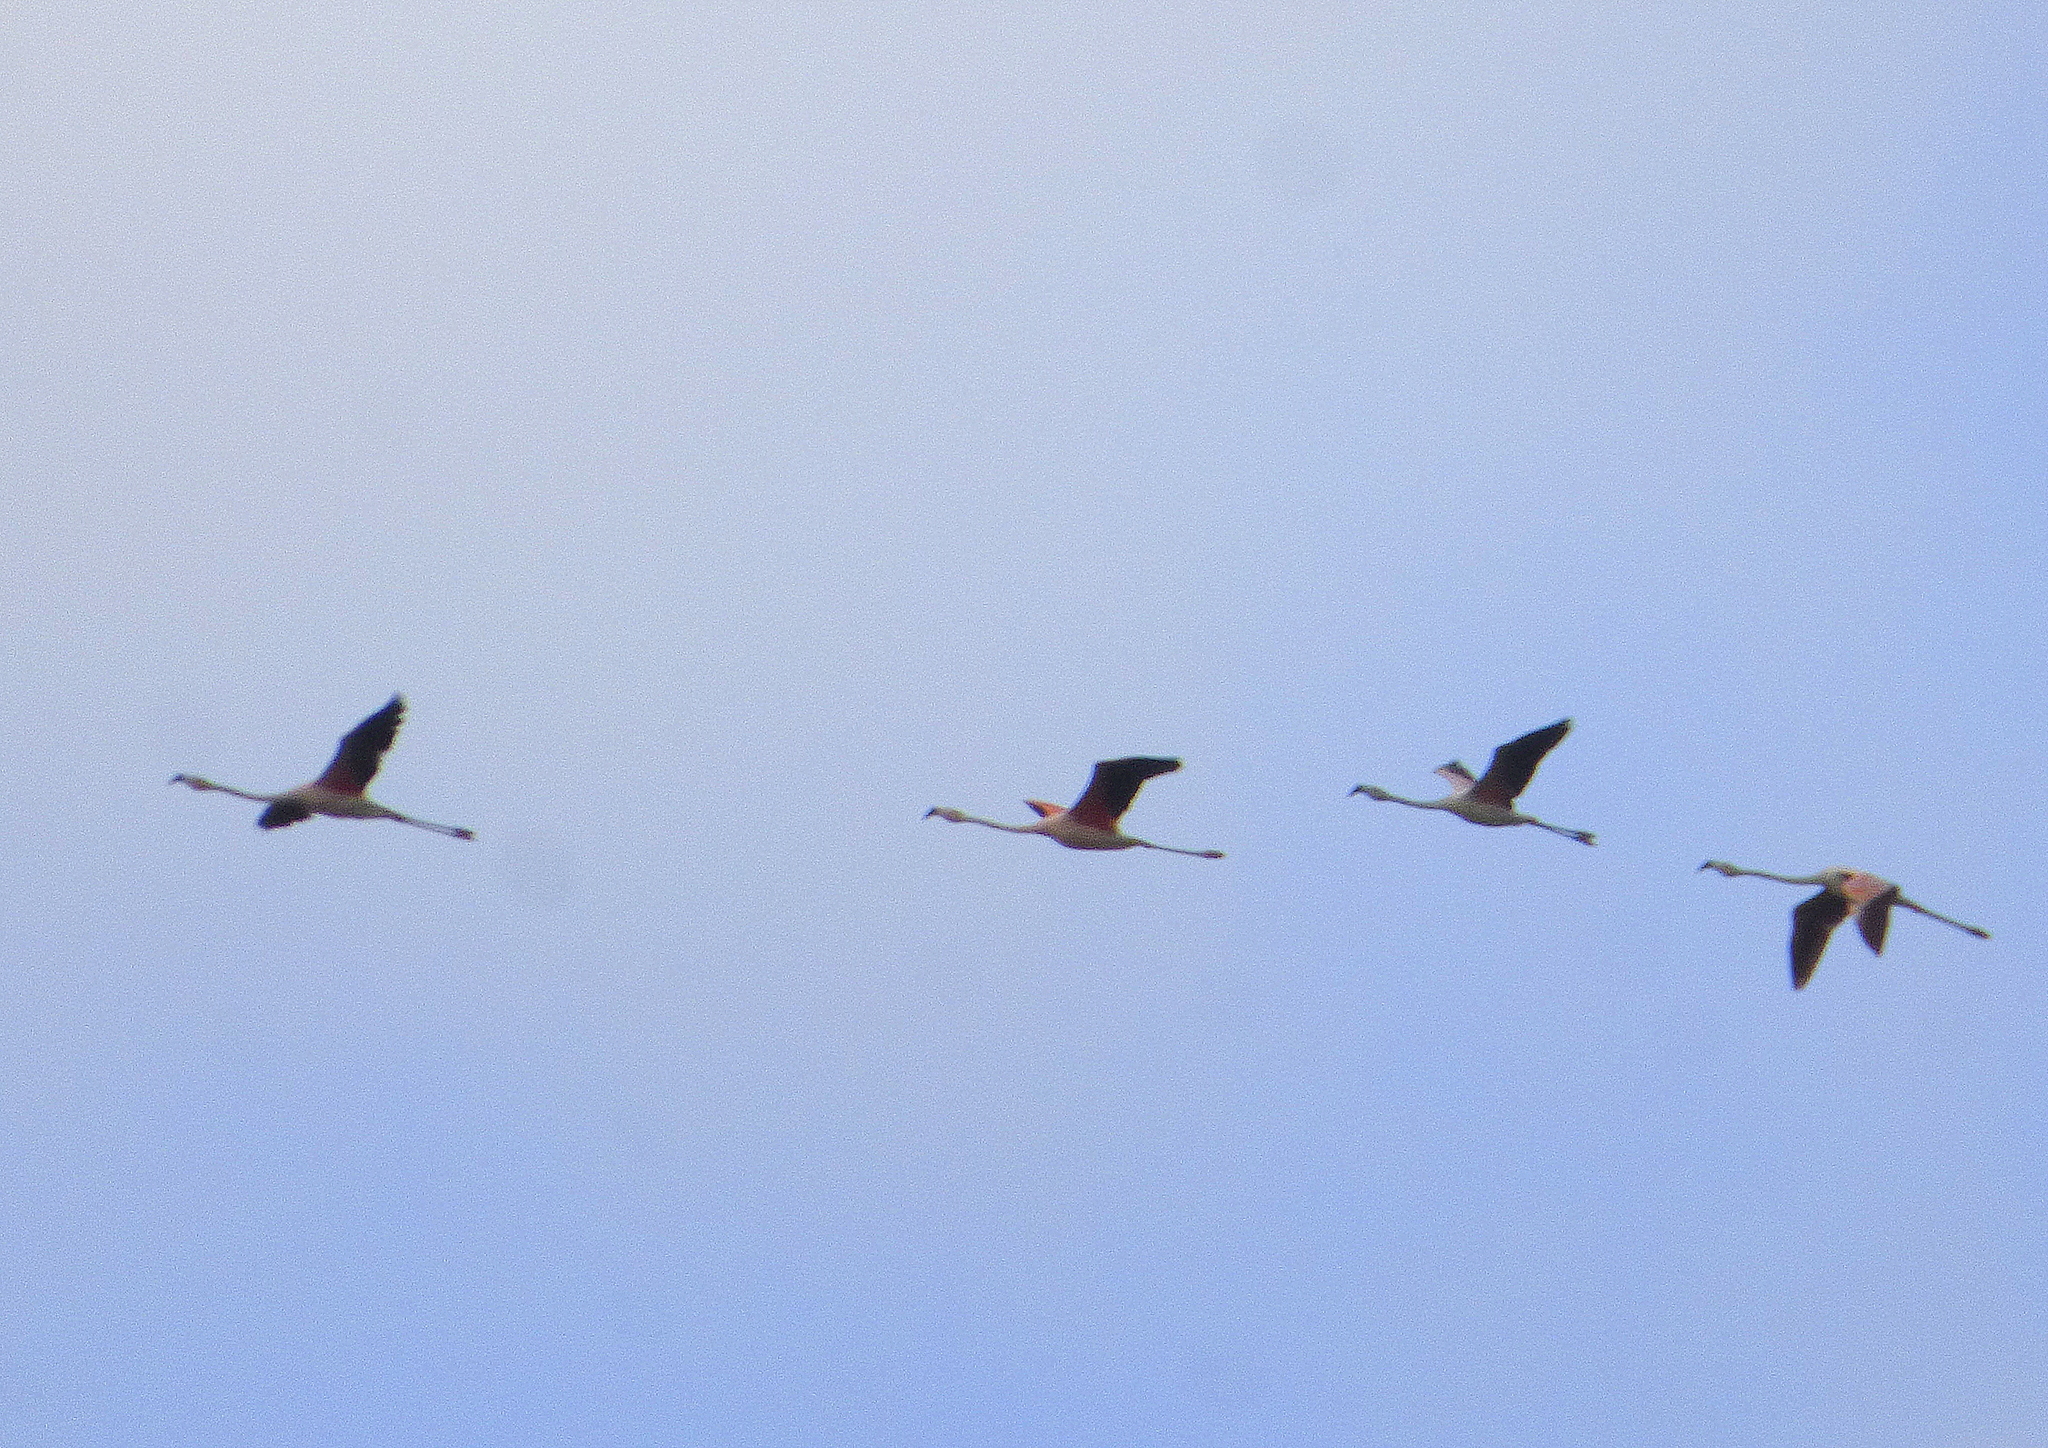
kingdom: Animalia
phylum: Chordata
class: Aves
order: Phoenicopteriformes
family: Phoenicopteridae
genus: Phoenicopterus
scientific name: Phoenicopterus chilensis
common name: Chilean flamingo
